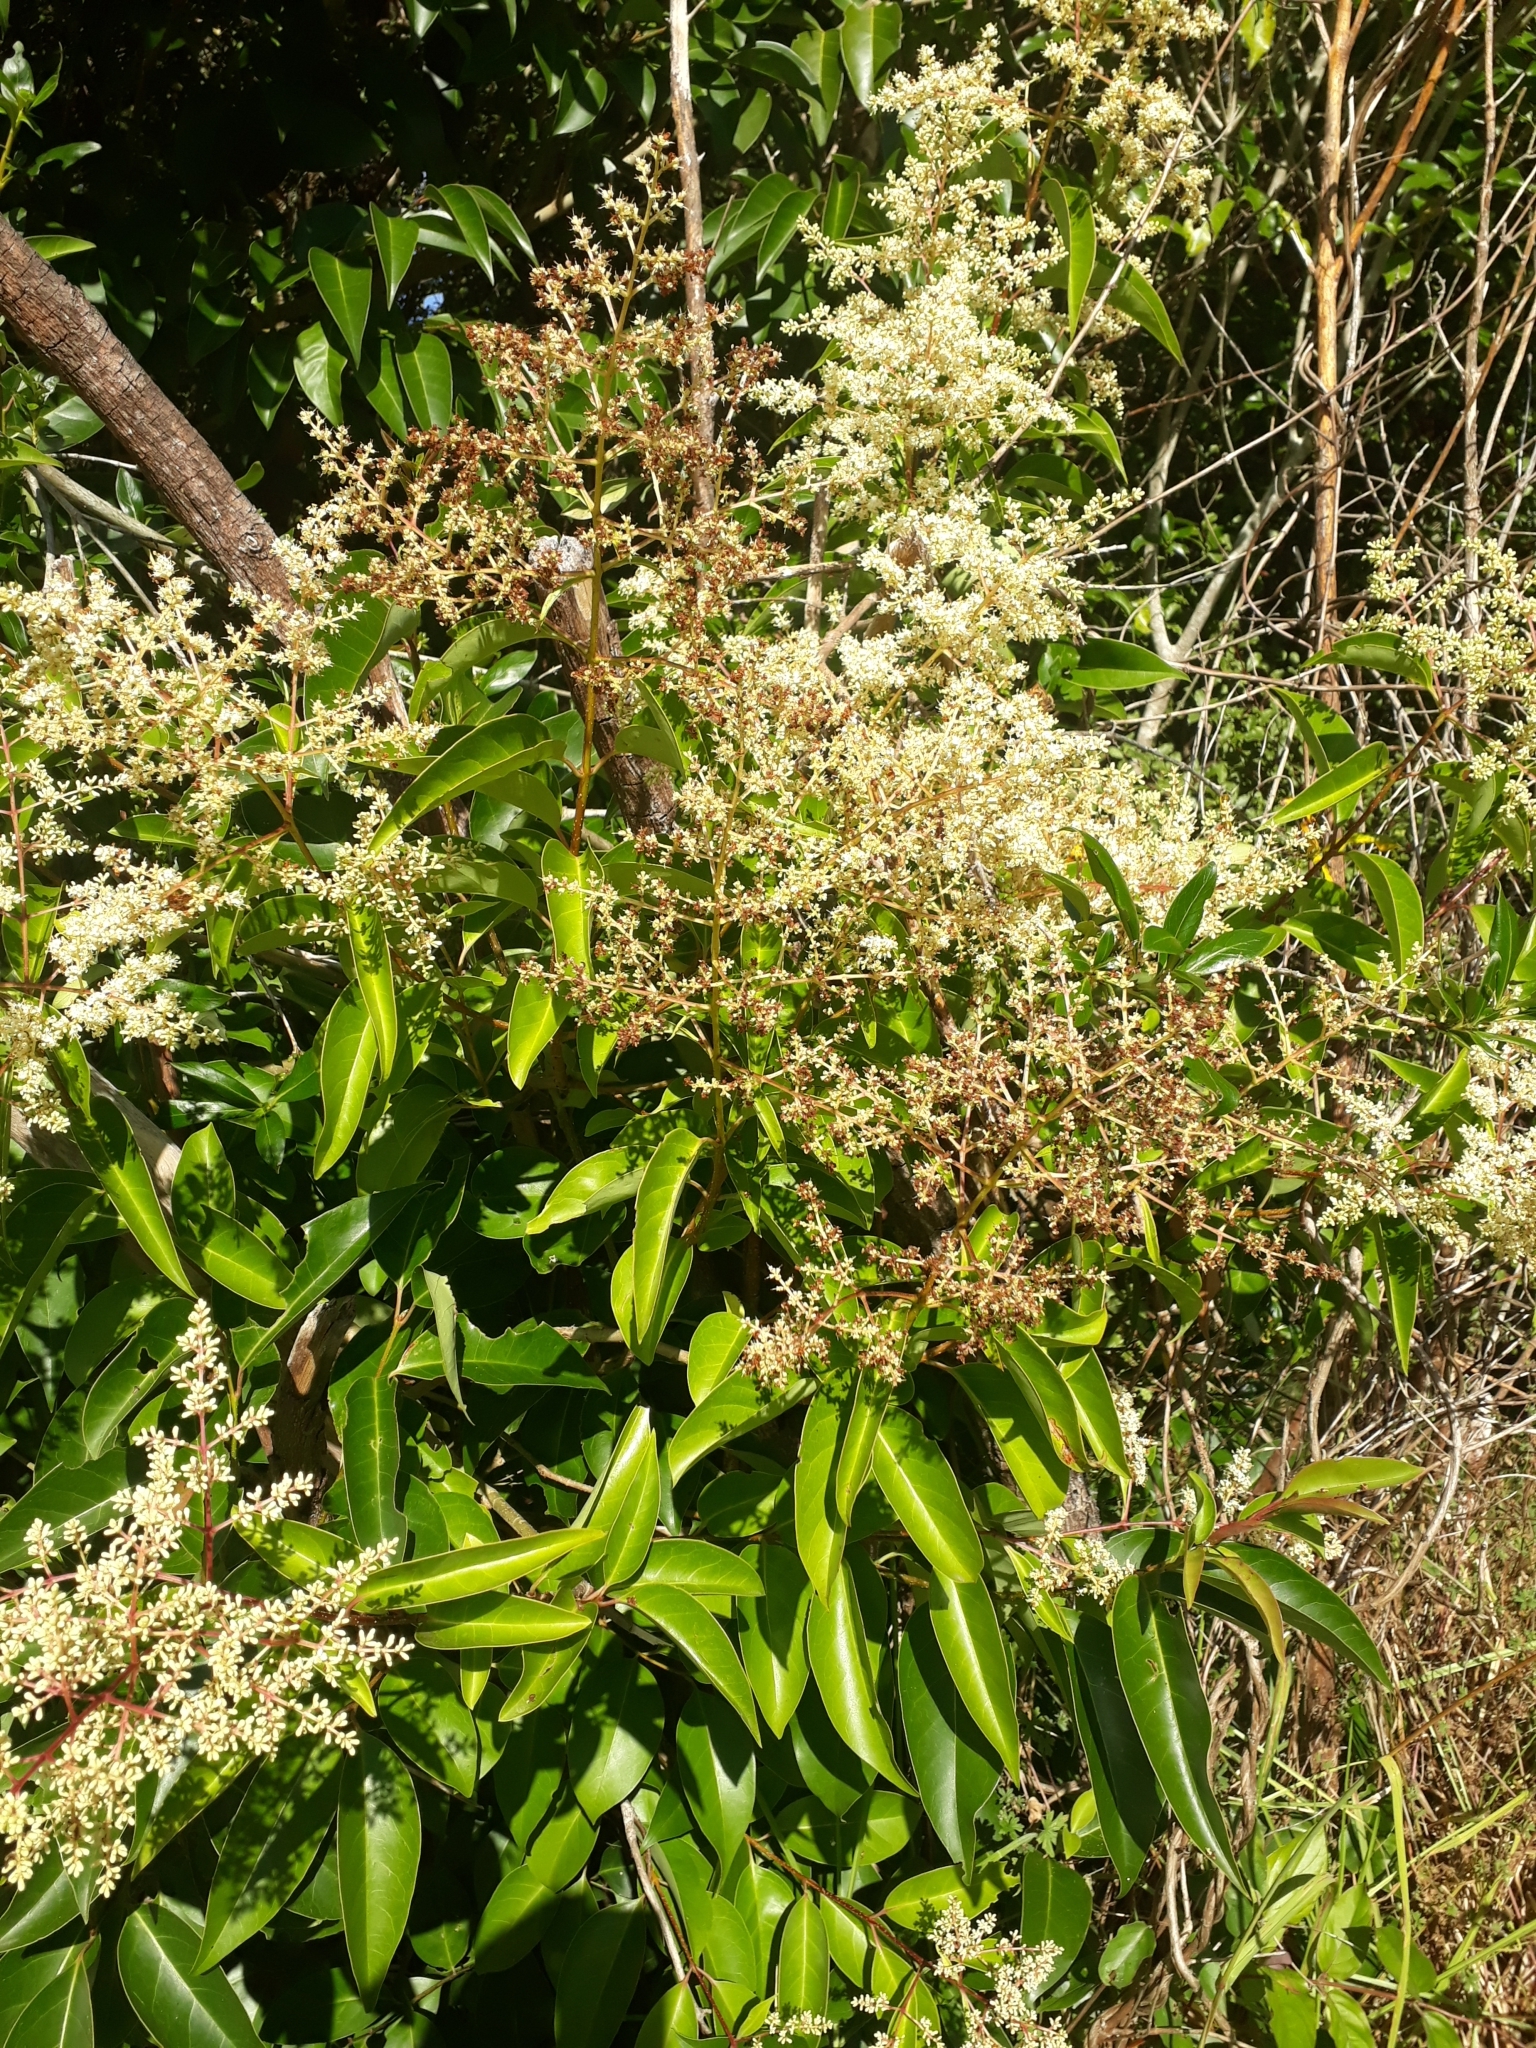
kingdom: Plantae
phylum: Tracheophyta
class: Magnoliopsida
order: Lamiales
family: Oleaceae
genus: Ligustrum
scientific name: Ligustrum lucidum
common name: Glossy privet
